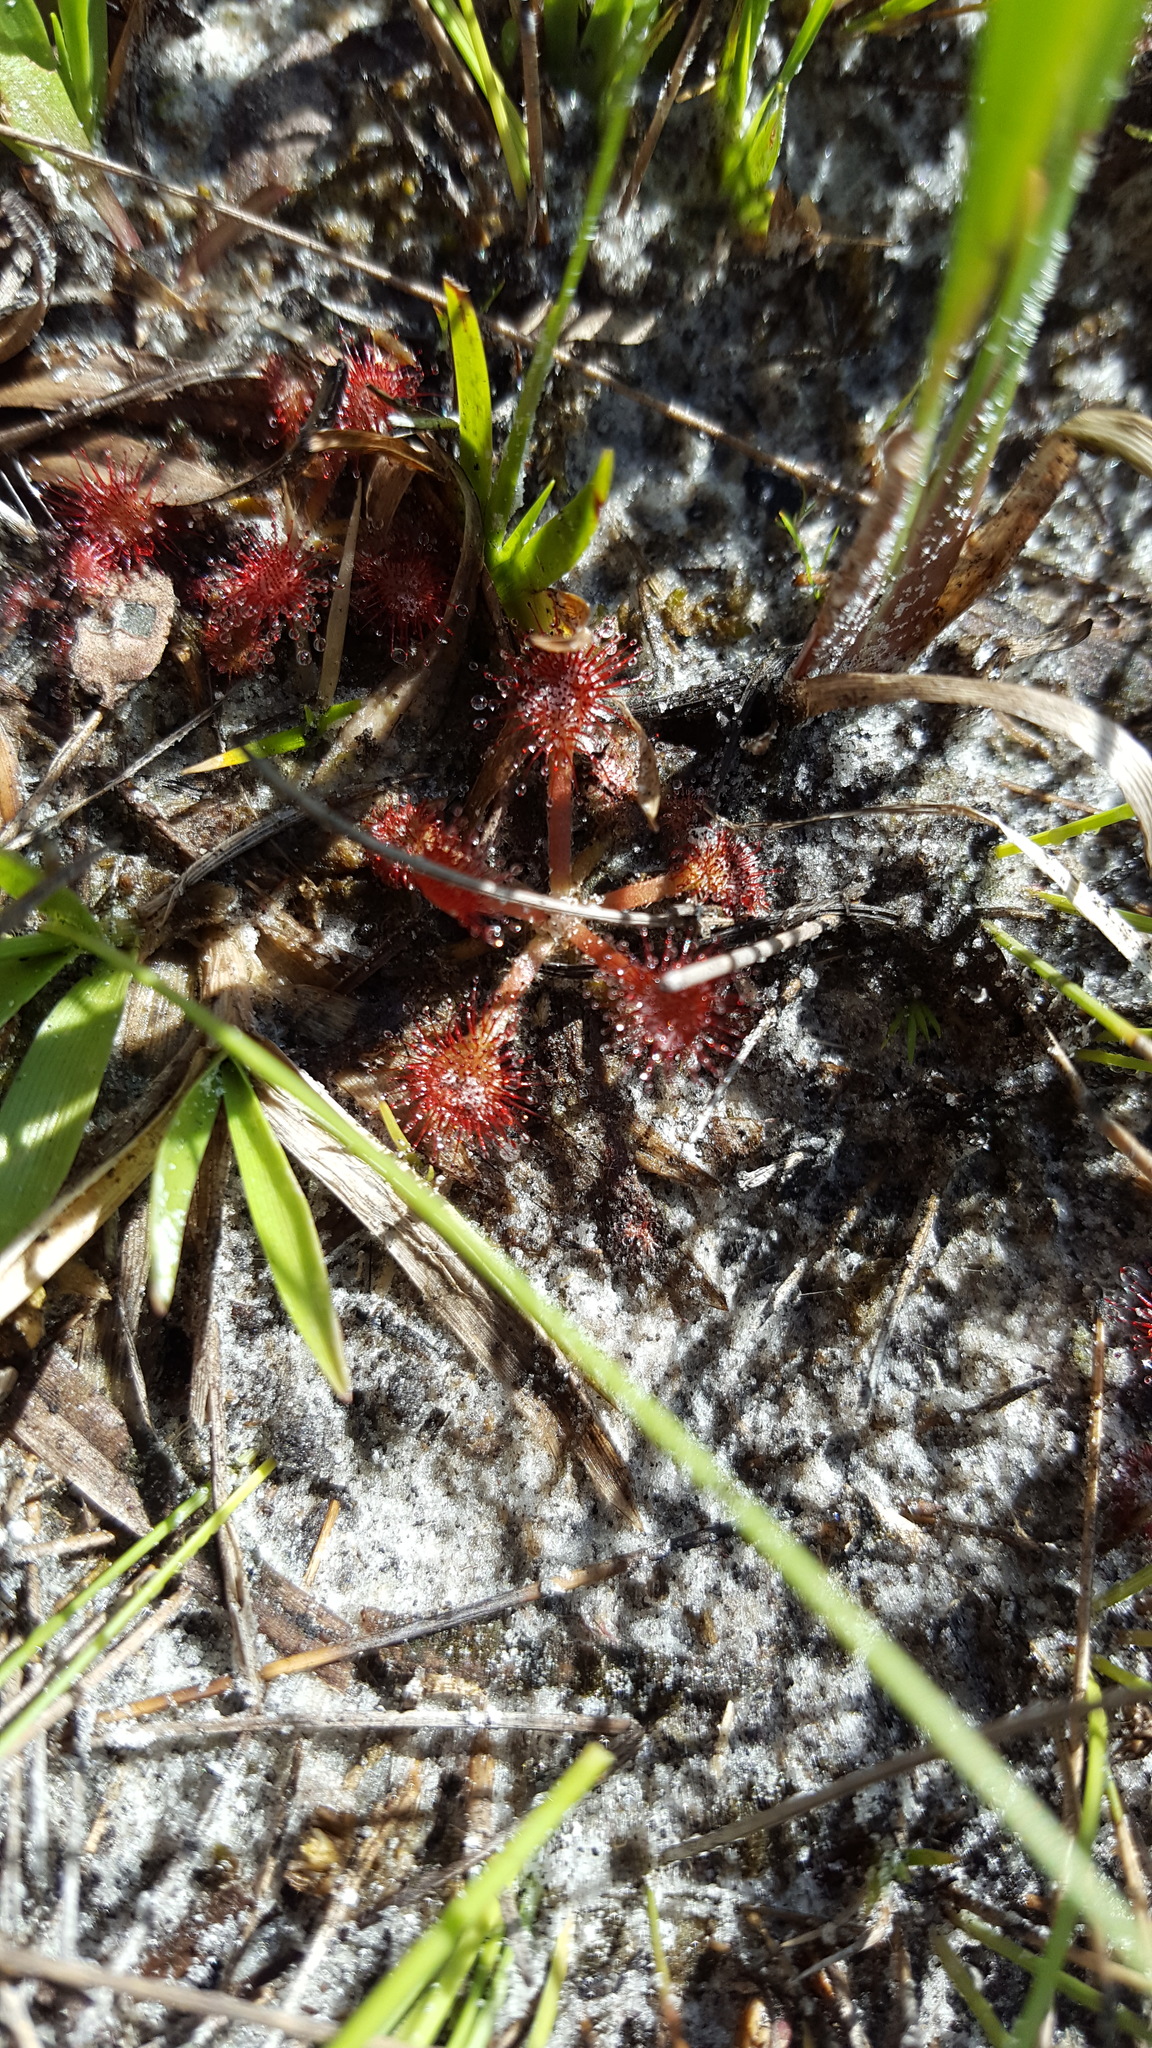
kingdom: Plantae
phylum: Tracheophyta
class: Magnoliopsida
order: Caryophyllales
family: Droseraceae
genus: Drosera
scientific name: Drosera capillaris
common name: Pink sundew
